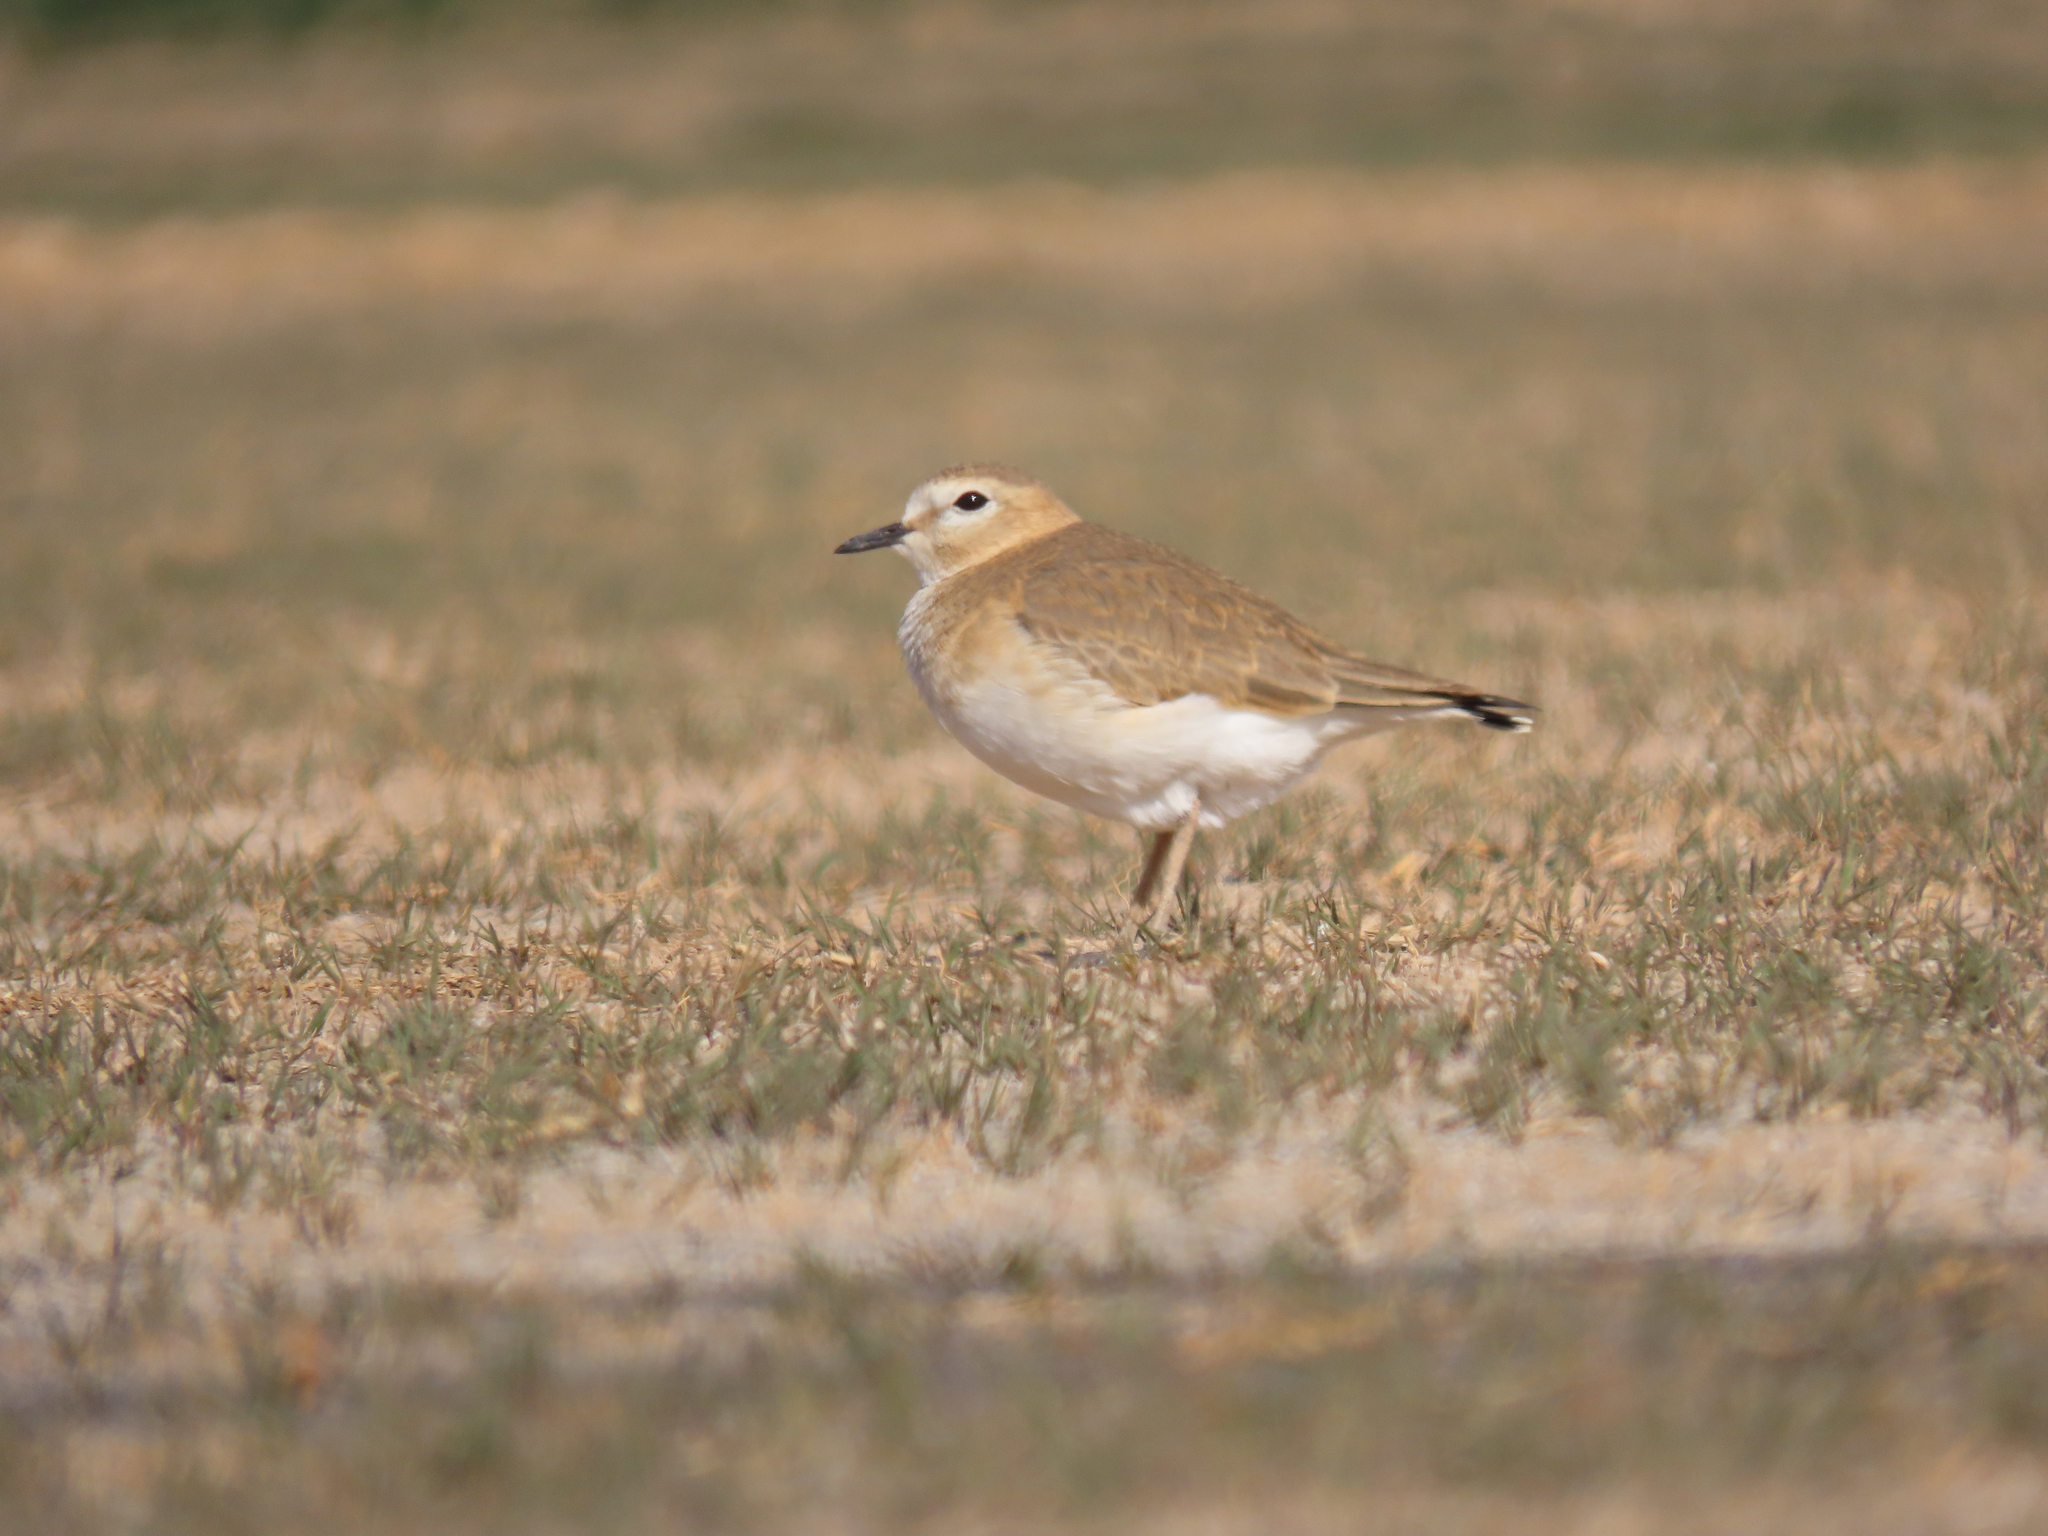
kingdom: Animalia
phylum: Chordata
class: Aves
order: Charadriiformes
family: Charadriidae
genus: Anarhynchus
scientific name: Anarhynchus
